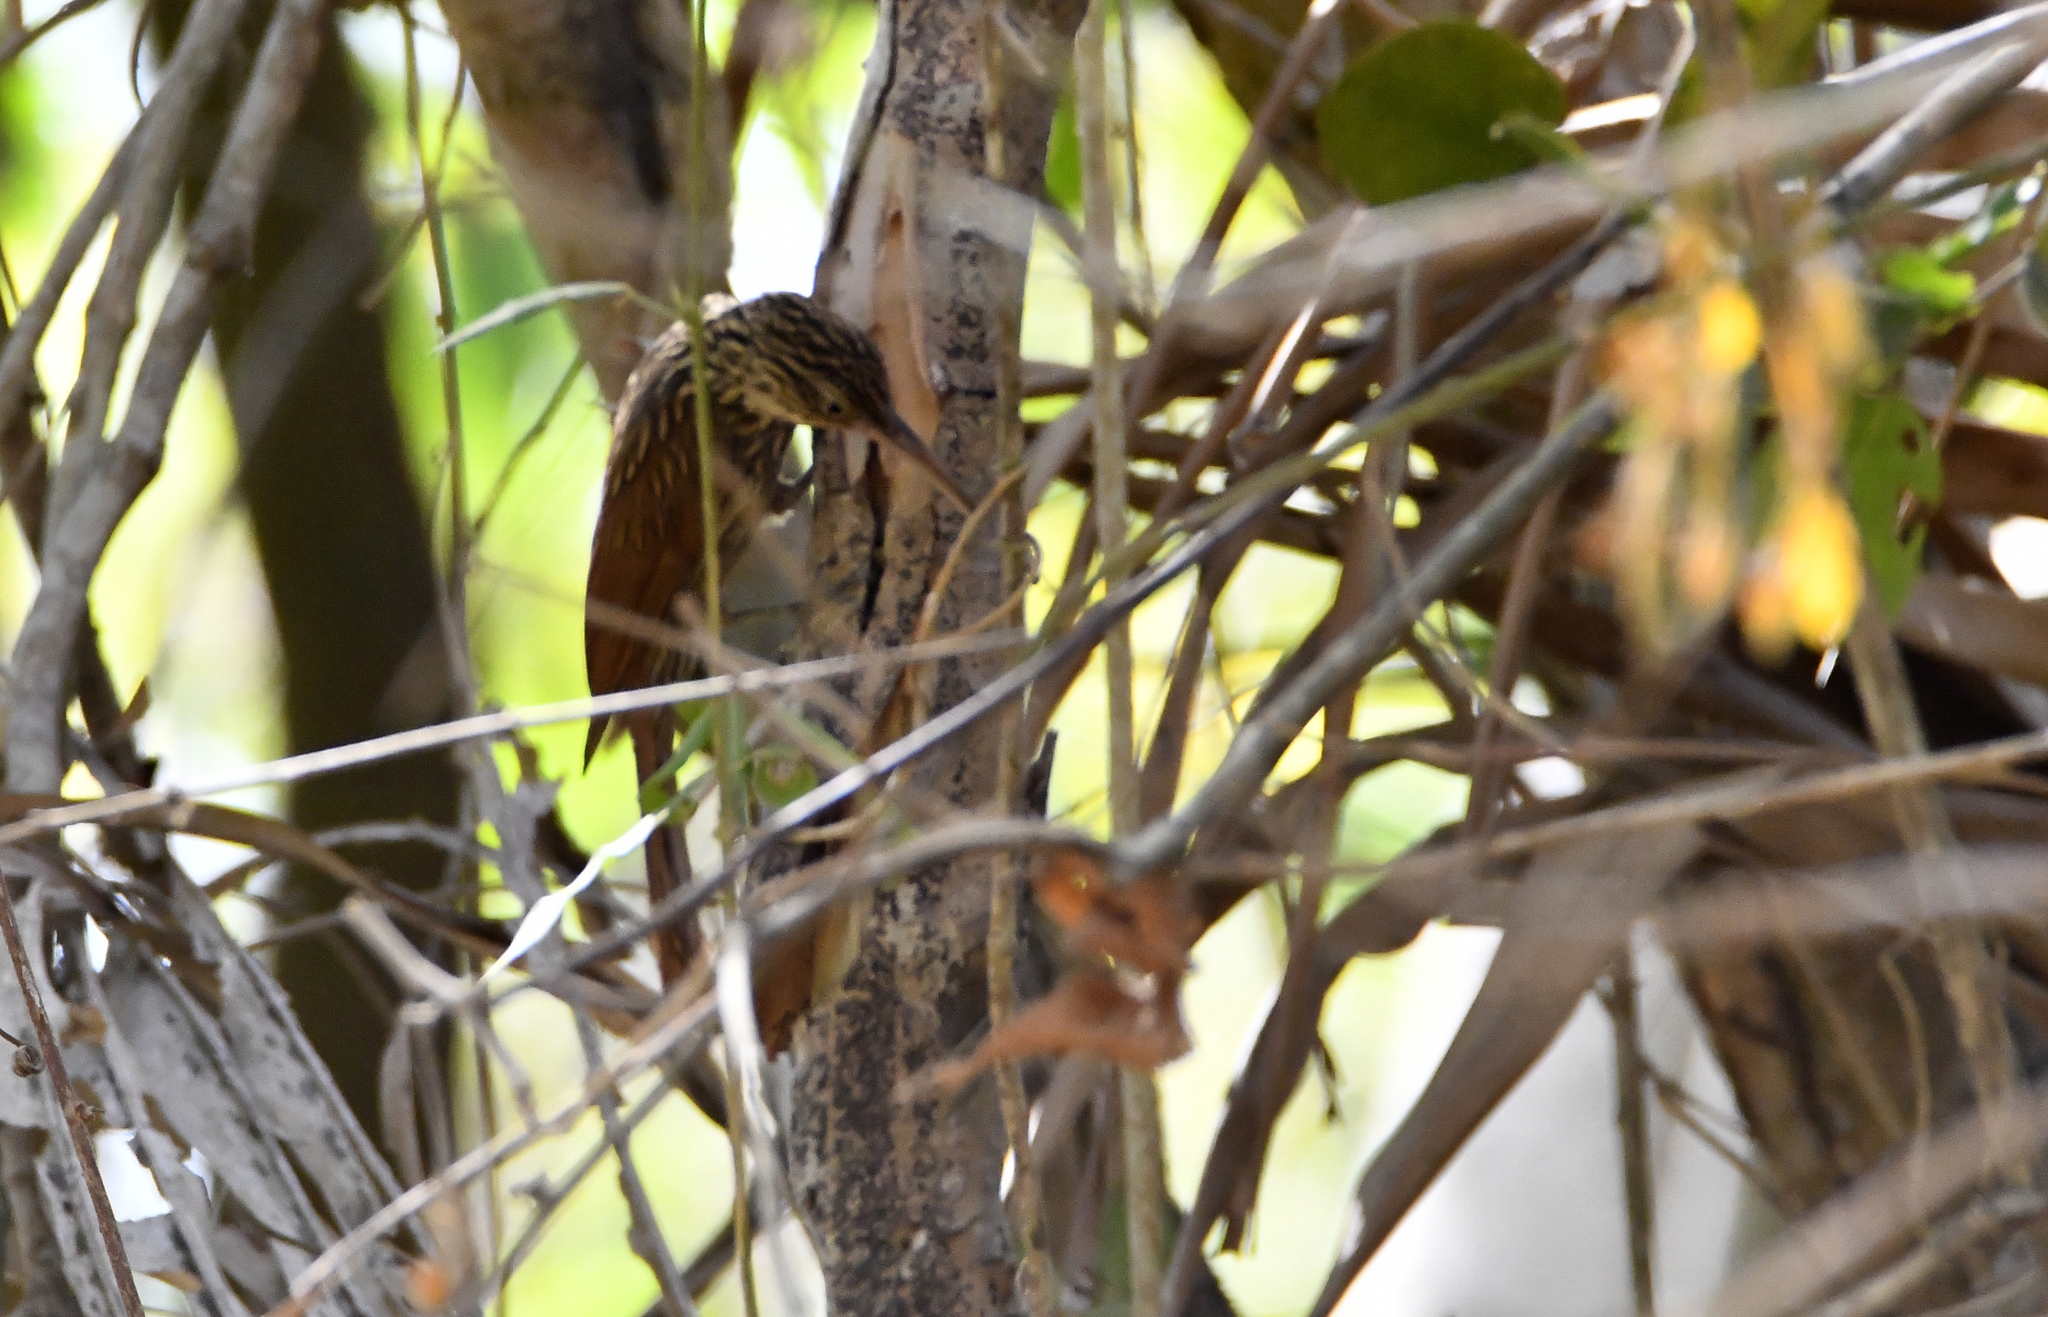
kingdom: Animalia
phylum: Chordata
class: Aves
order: Passeriformes
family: Furnariidae
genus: Xiphorhynchus
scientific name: Xiphorhynchus flavigaster
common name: Ivory-billed woodcreeper
